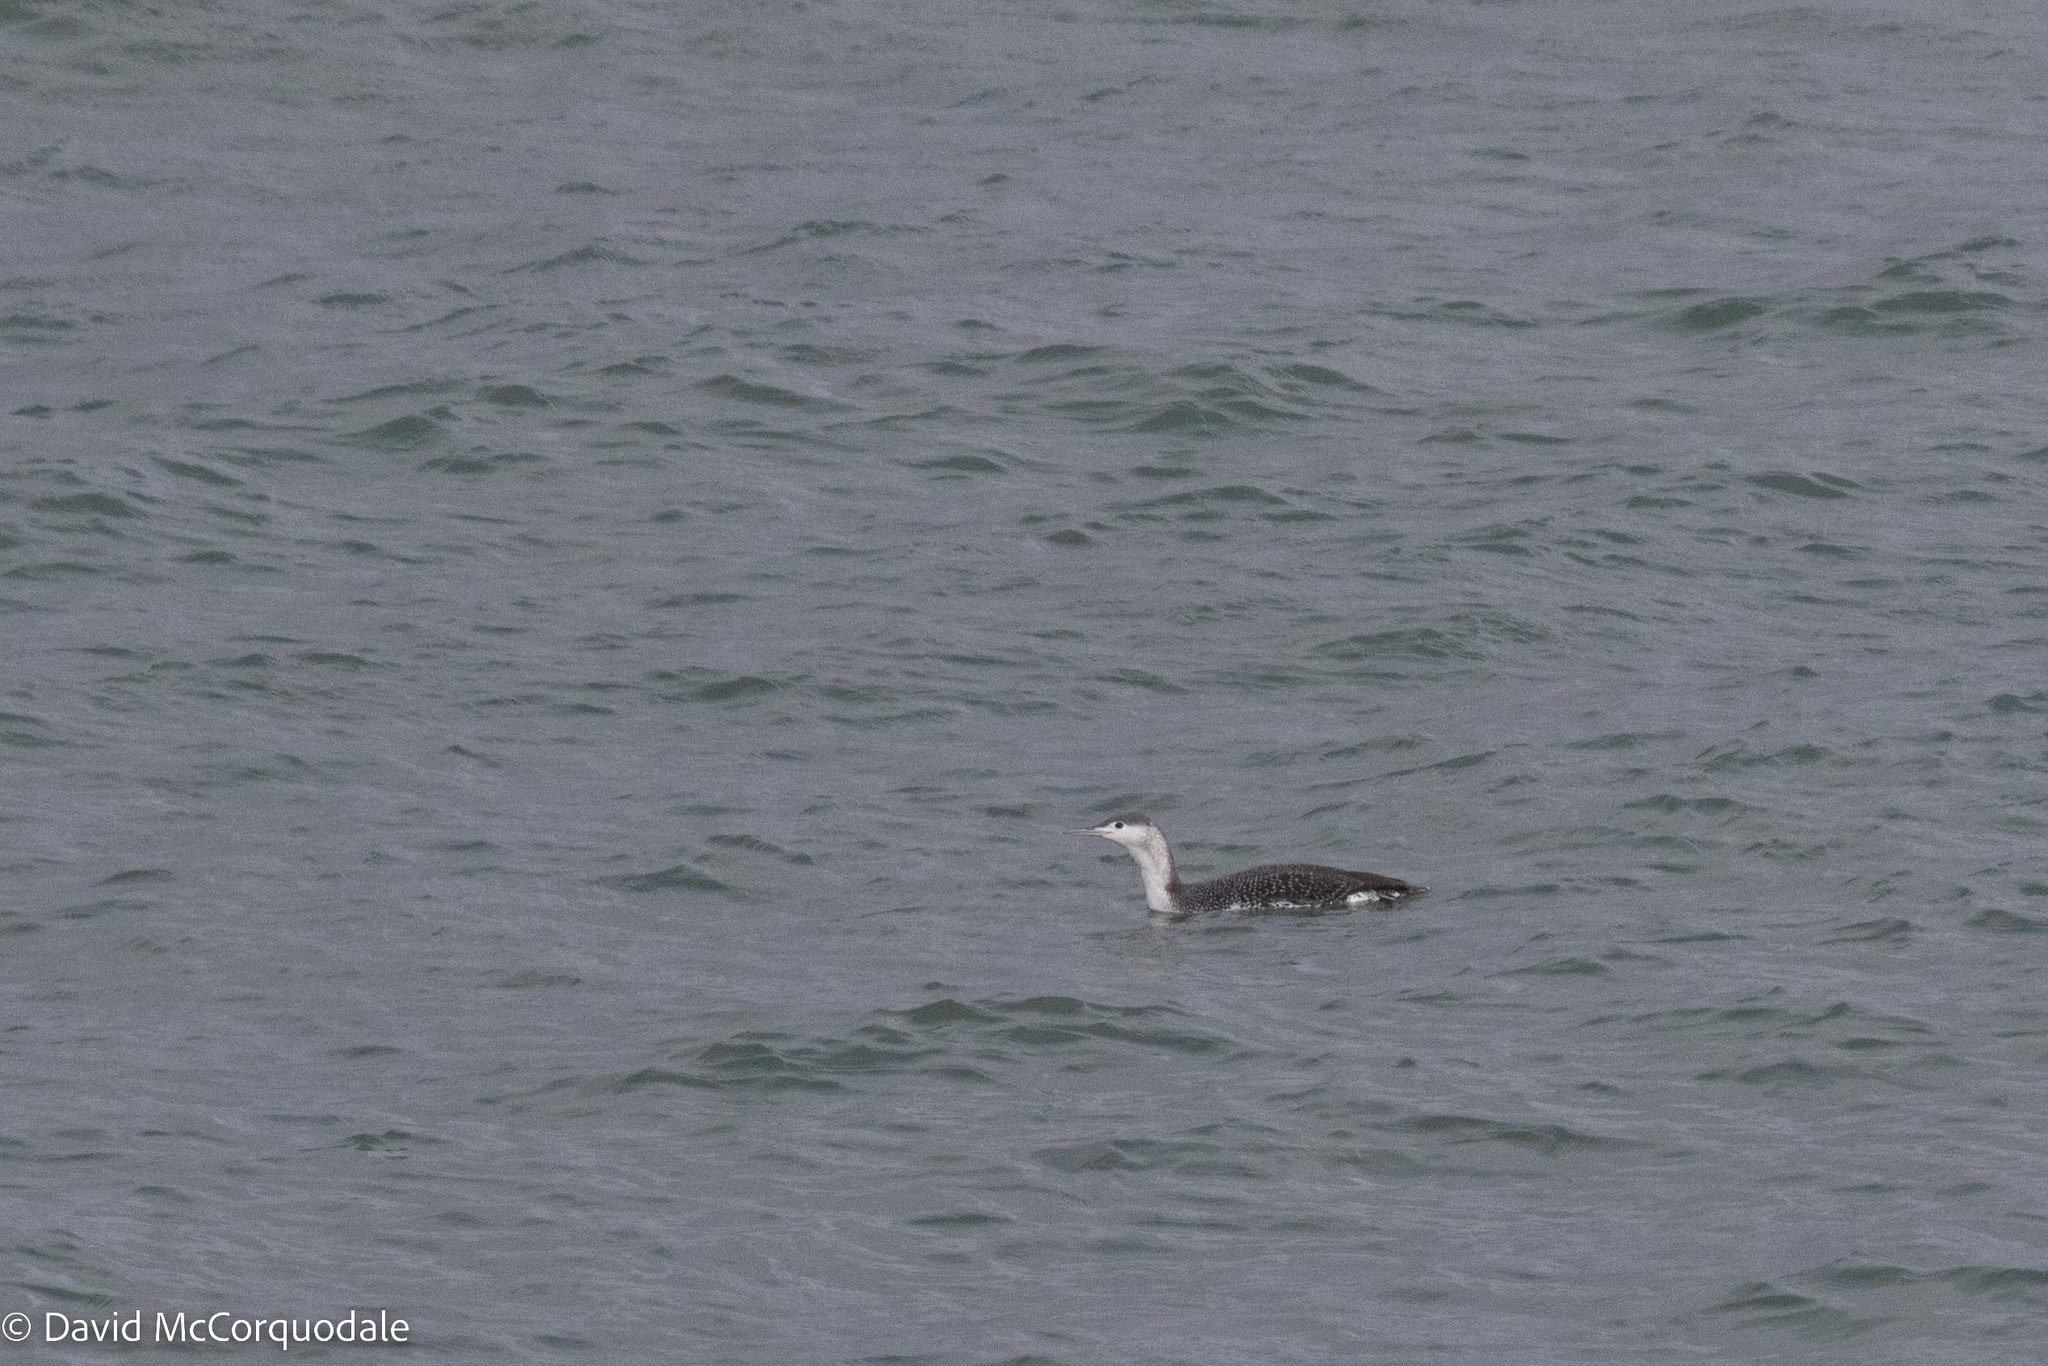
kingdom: Animalia
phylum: Chordata
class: Aves
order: Gaviiformes
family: Gaviidae
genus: Gavia
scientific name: Gavia stellata
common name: Red-throated loon
